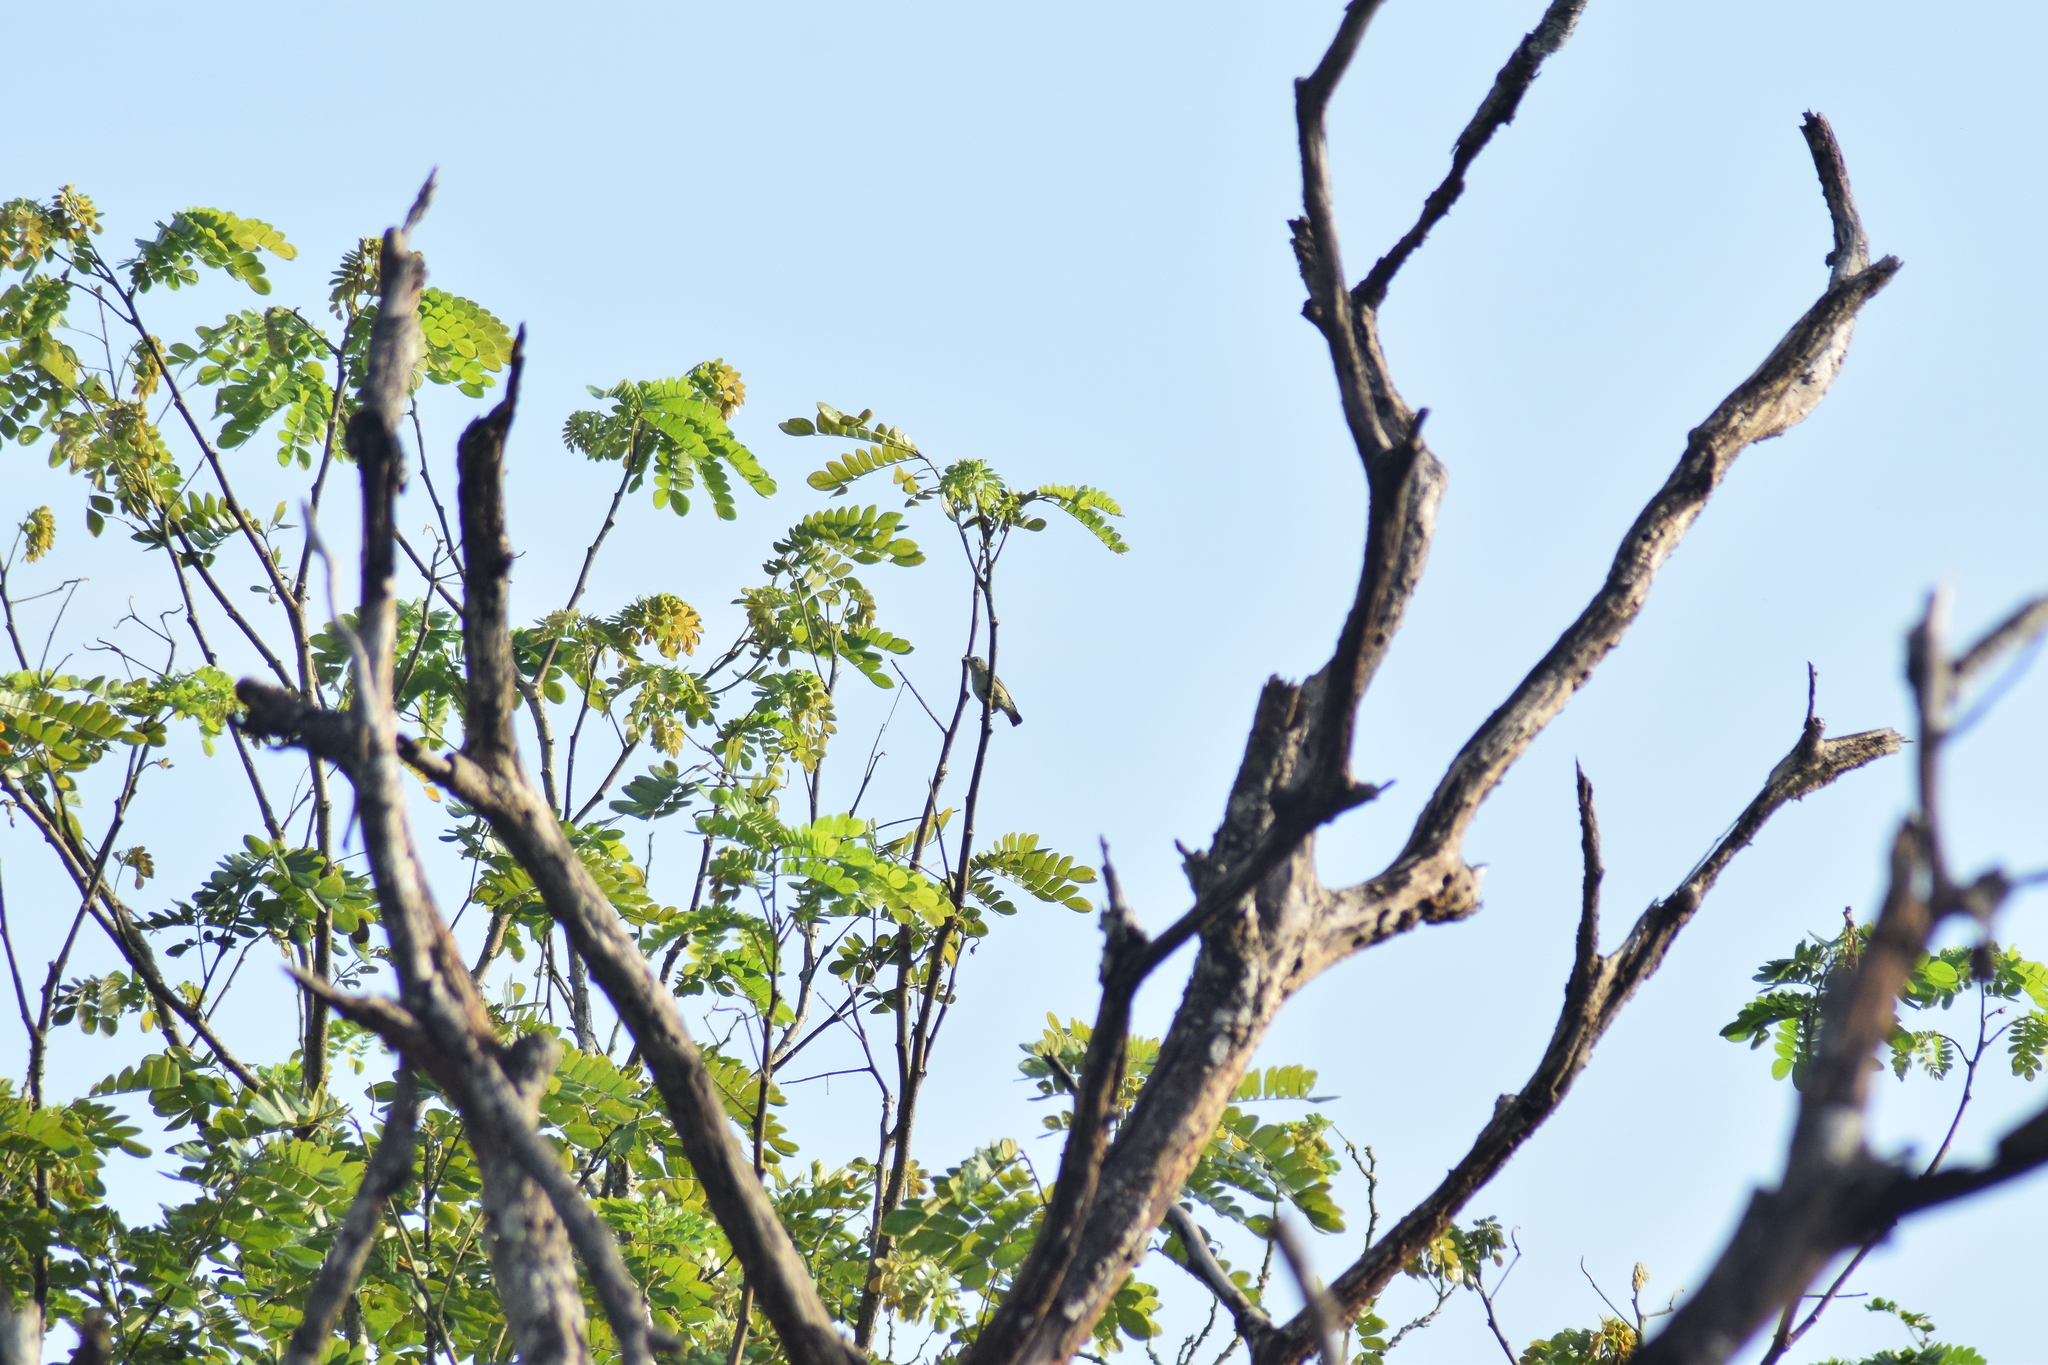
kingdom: Animalia
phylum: Chordata
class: Aves
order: Passeriformes
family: Dicaeidae
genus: Dicaeum
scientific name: Dicaeum erythrorhynchos
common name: Pale-billed flowerpecker
